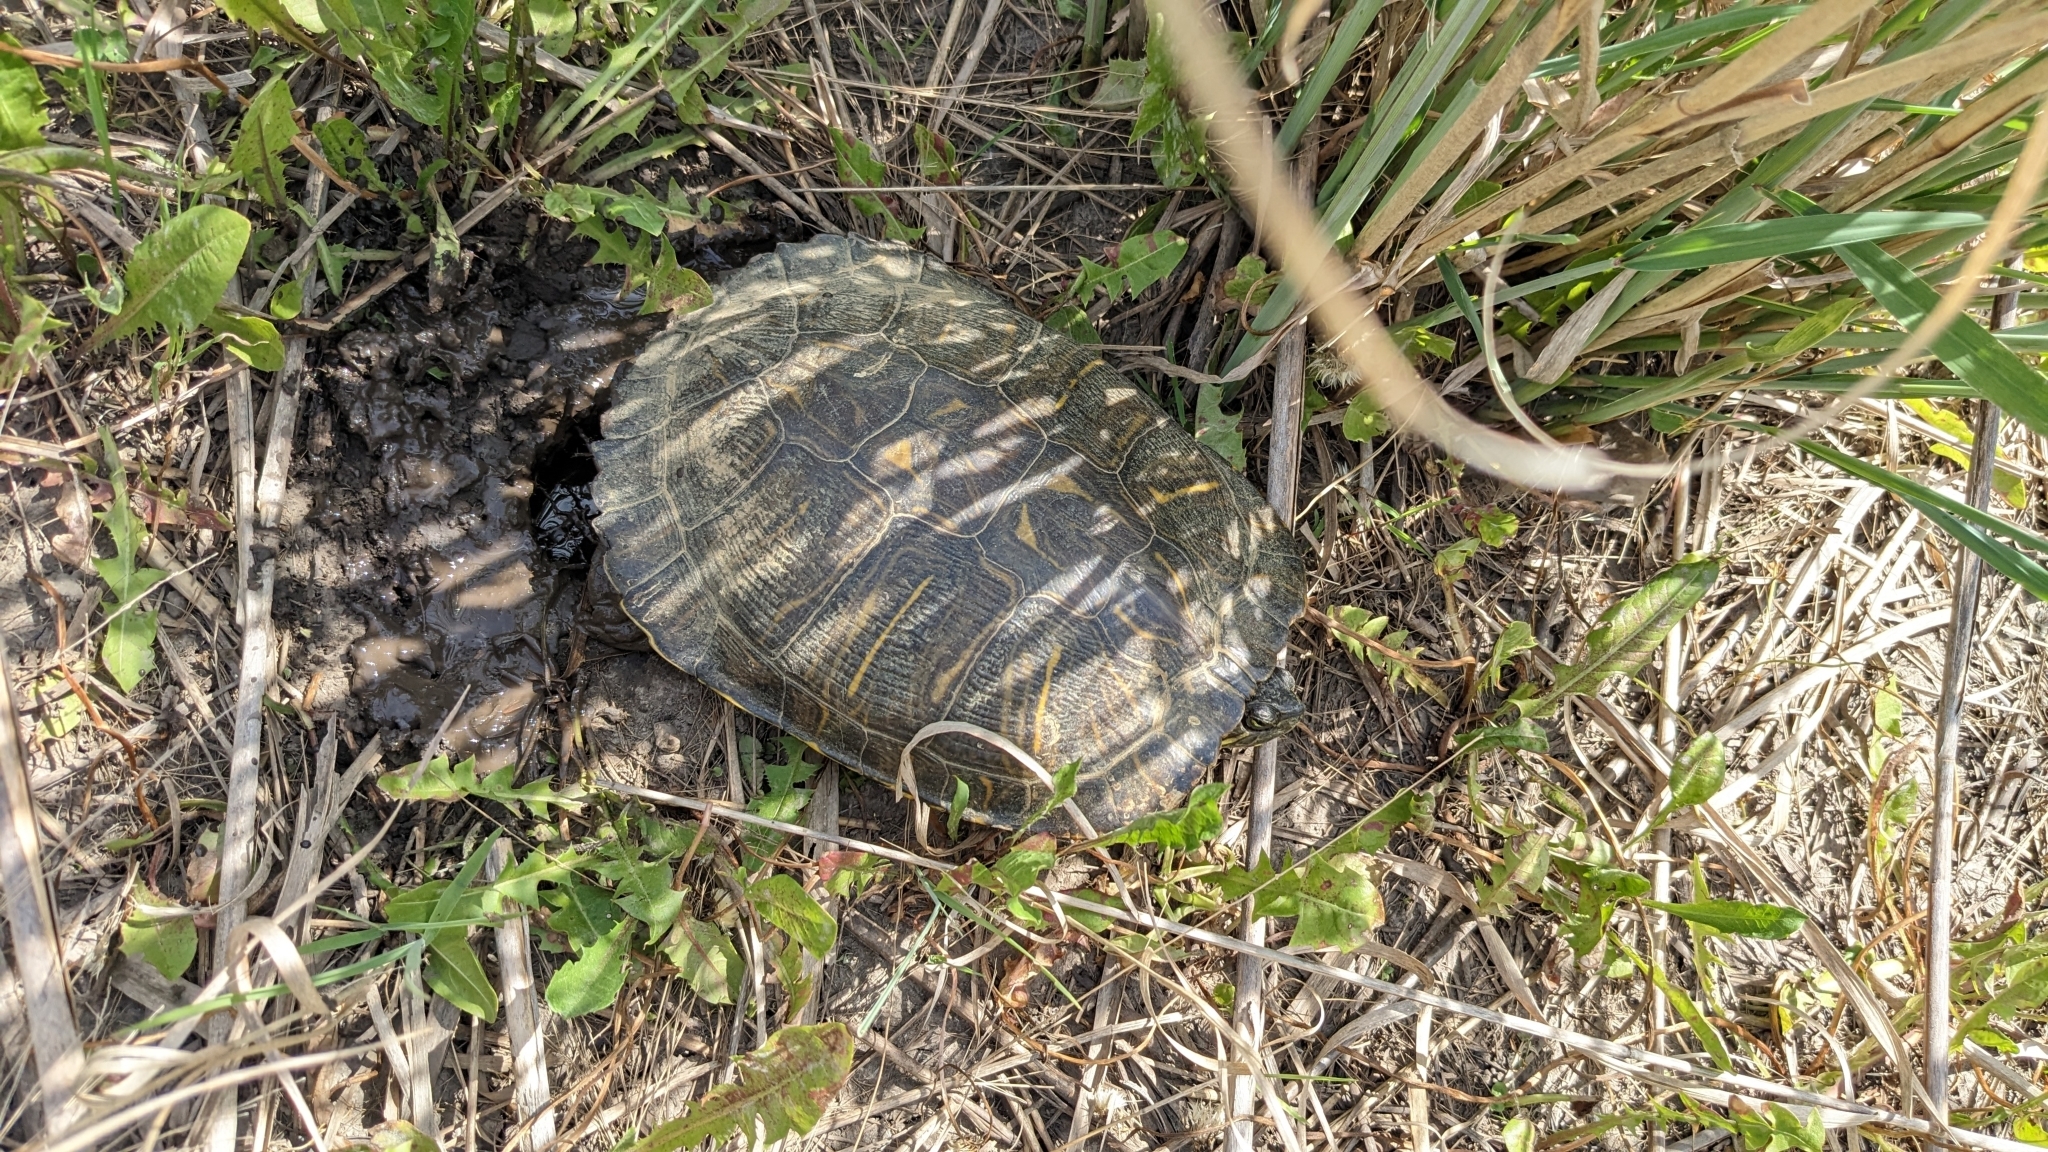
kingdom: Animalia
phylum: Chordata
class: Testudines
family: Emydidae
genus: Trachemys
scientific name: Trachemys scripta
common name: Slider
